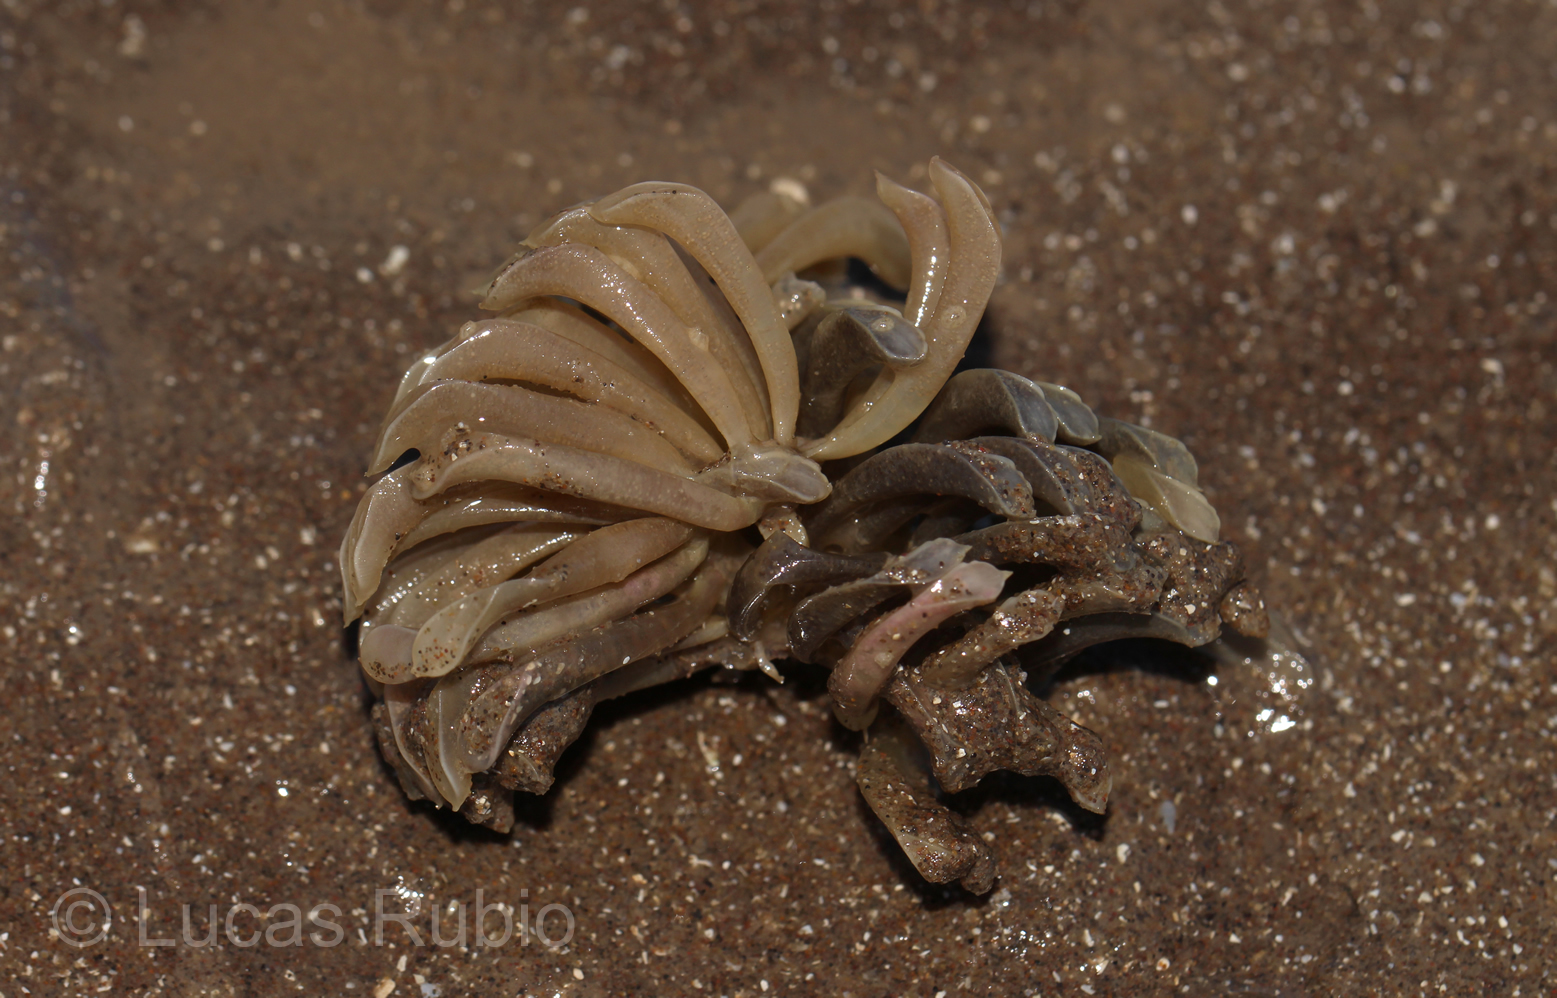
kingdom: Animalia
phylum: Mollusca
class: Gastropoda
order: Neogastropoda
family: Muricidae
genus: Rapana
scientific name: Rapana venosa
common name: Veined rapa whelk
